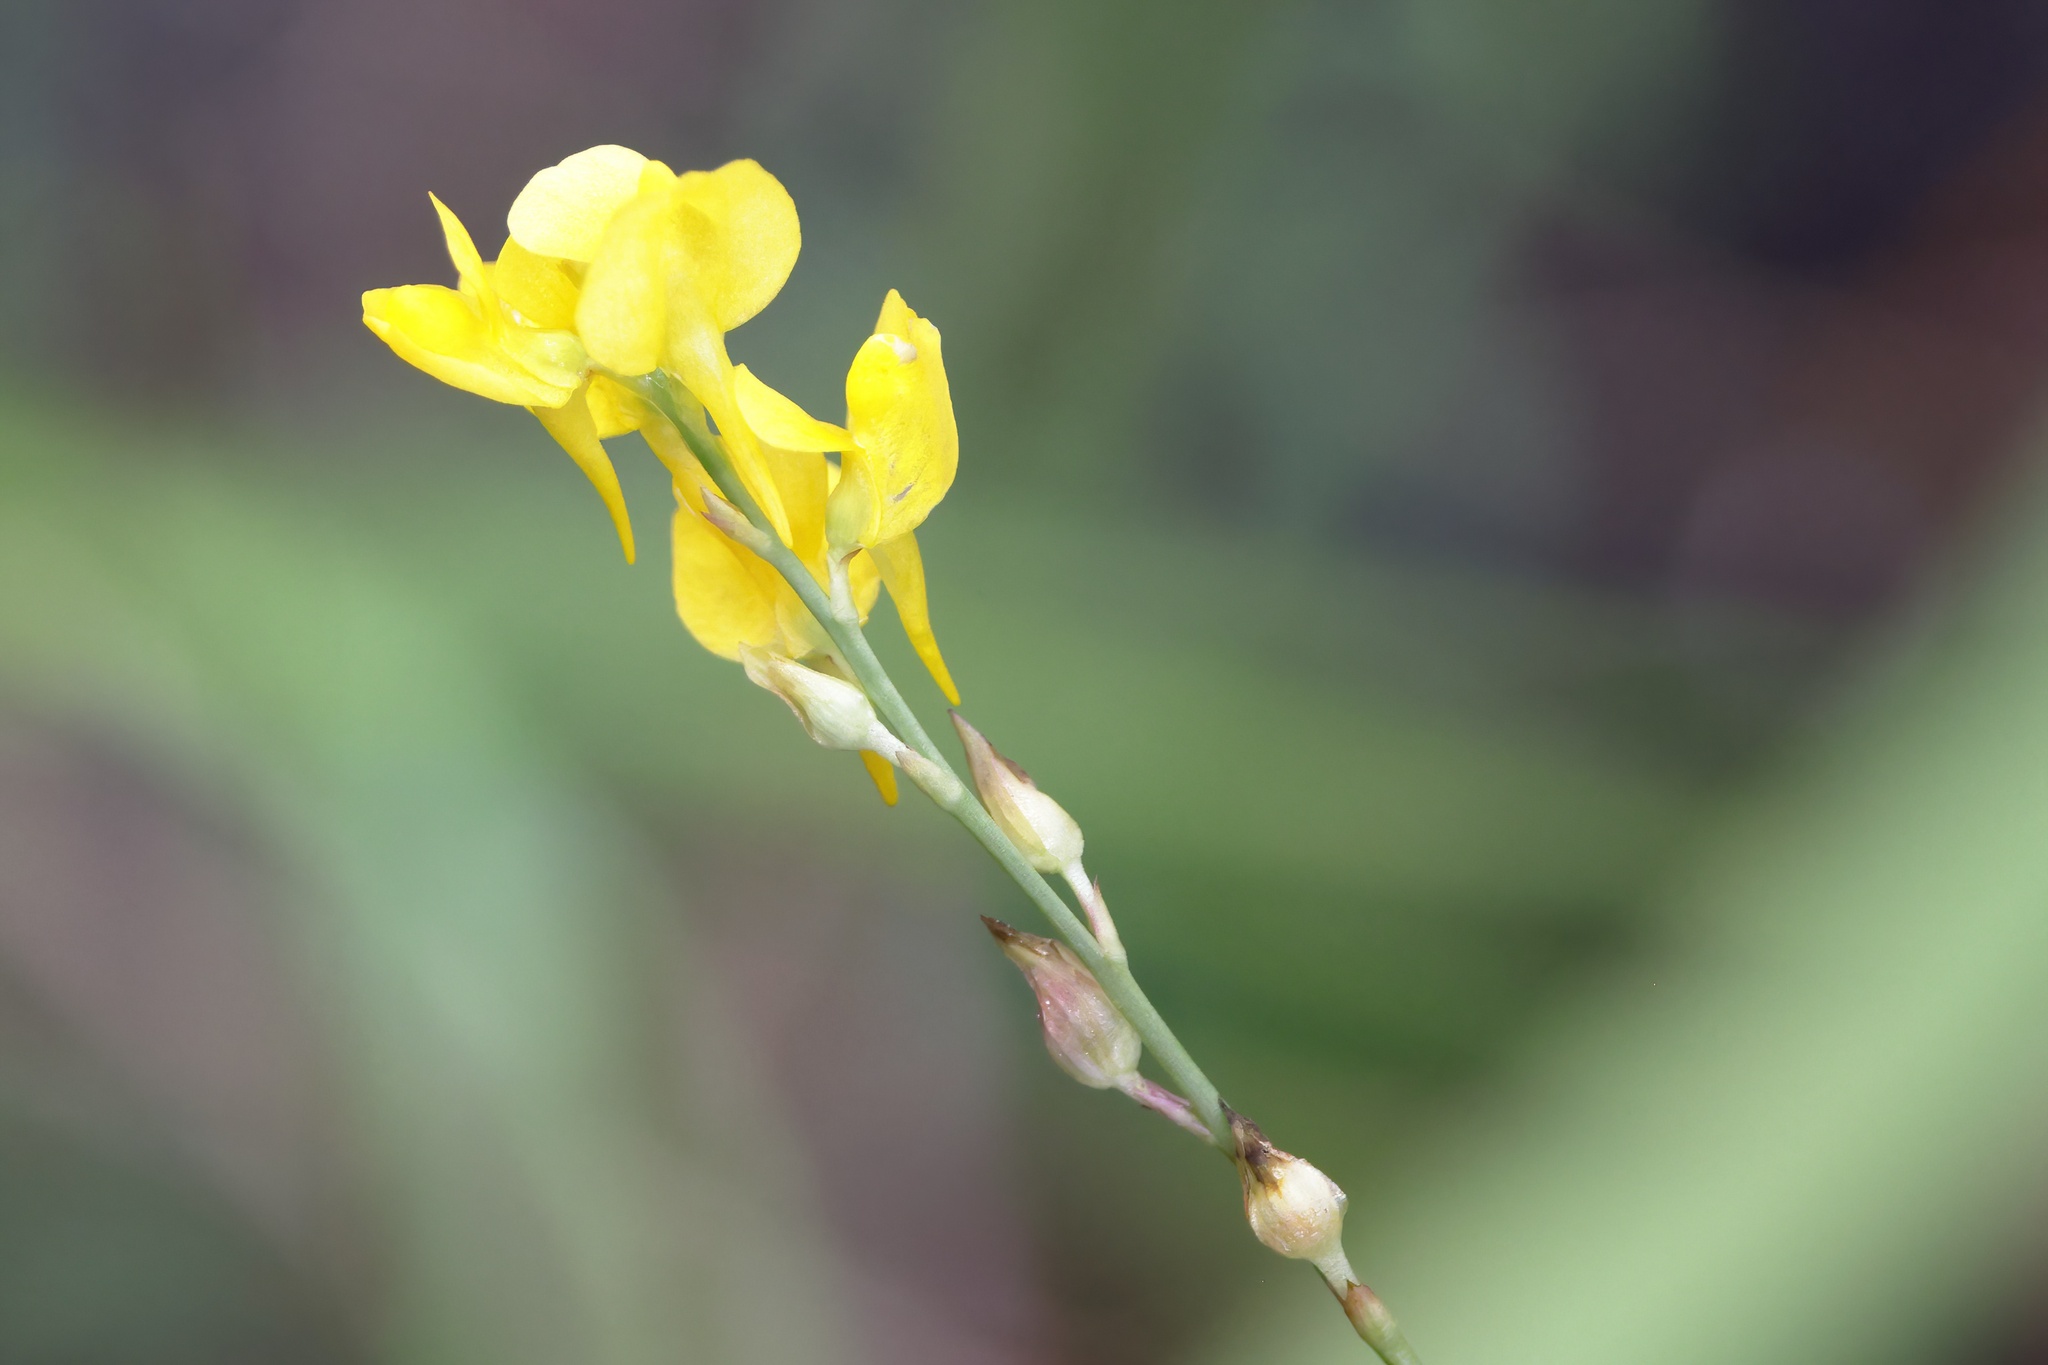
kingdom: Plantae
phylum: Tracheophyta
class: Magnoliopsida
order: Lamiales
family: Lentibulariaceae
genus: Utricularia
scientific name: Utricularia juncea
